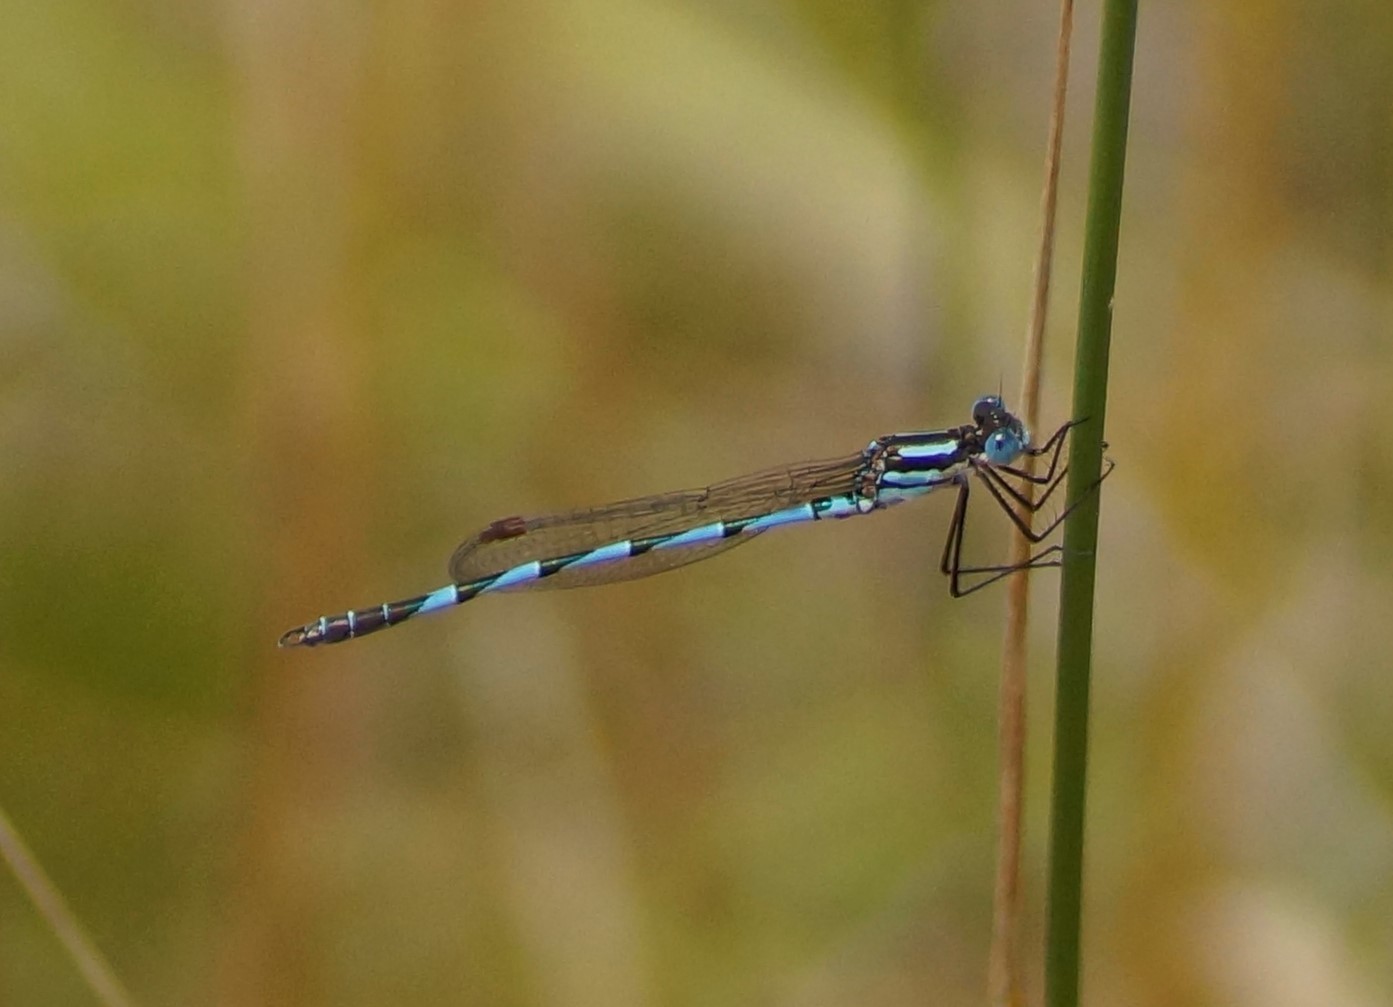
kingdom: Animalia
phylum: Arthropoda
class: Insecta
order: Odonata
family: Lestidae
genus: Austrolestes
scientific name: Austrolestes annulosus
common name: Blue ringtail
